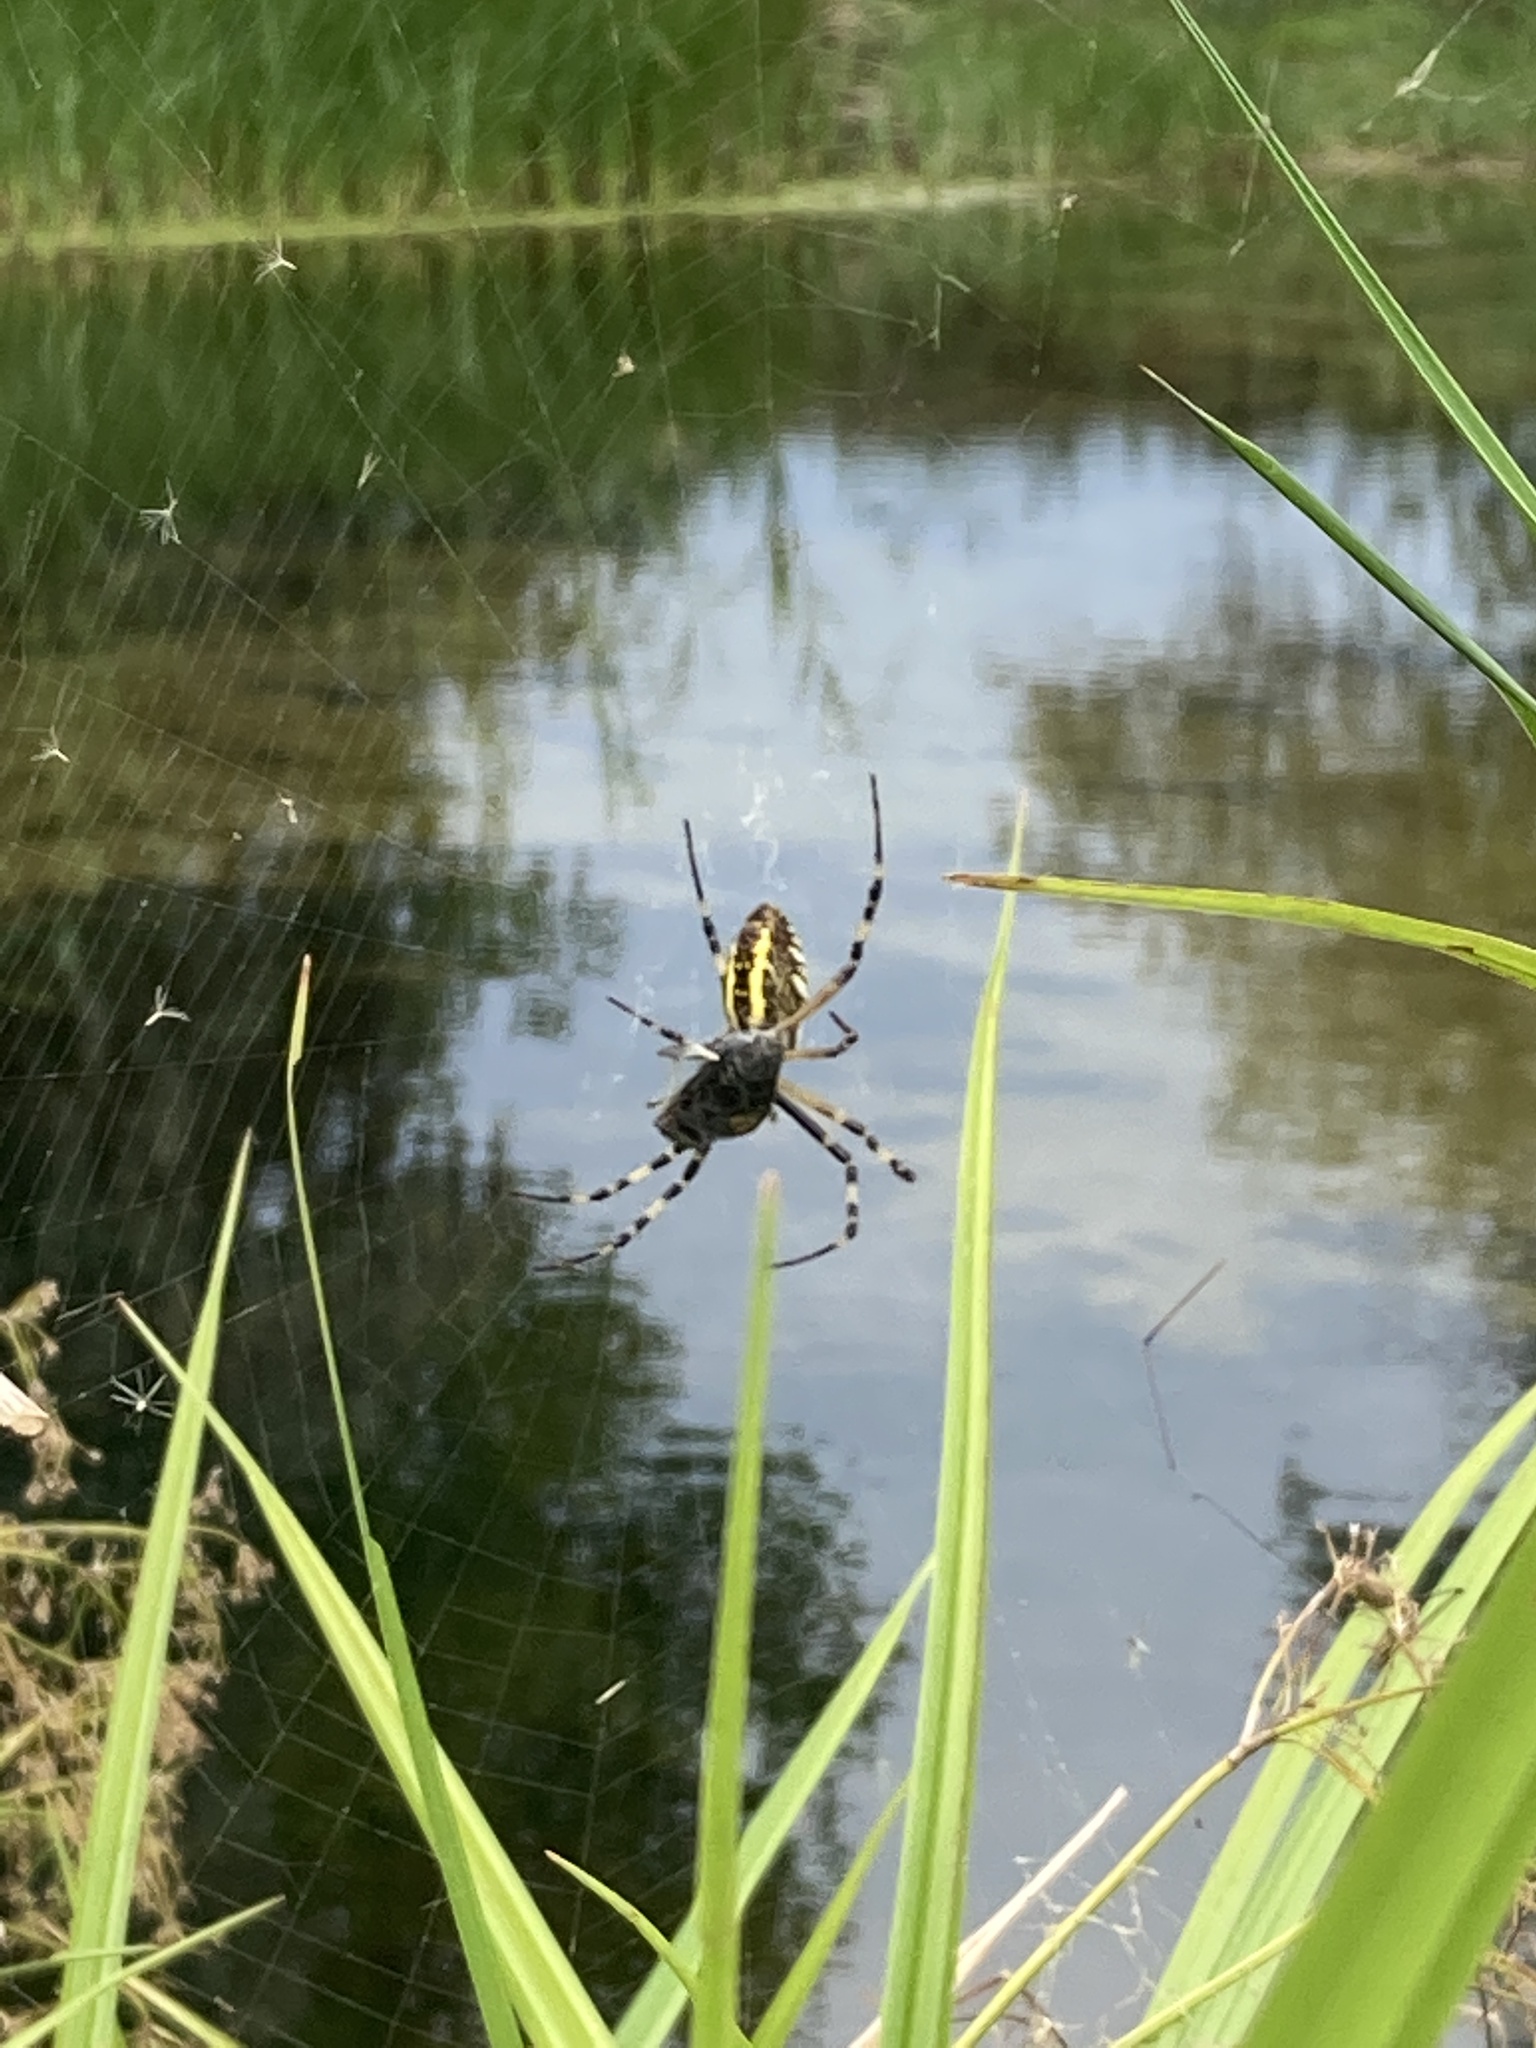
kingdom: Animalia
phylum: Arthropoda
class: Arachnida
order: Araneae
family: Araneidae
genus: Argiope
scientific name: Argiope bruennichi
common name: Wasp spider
